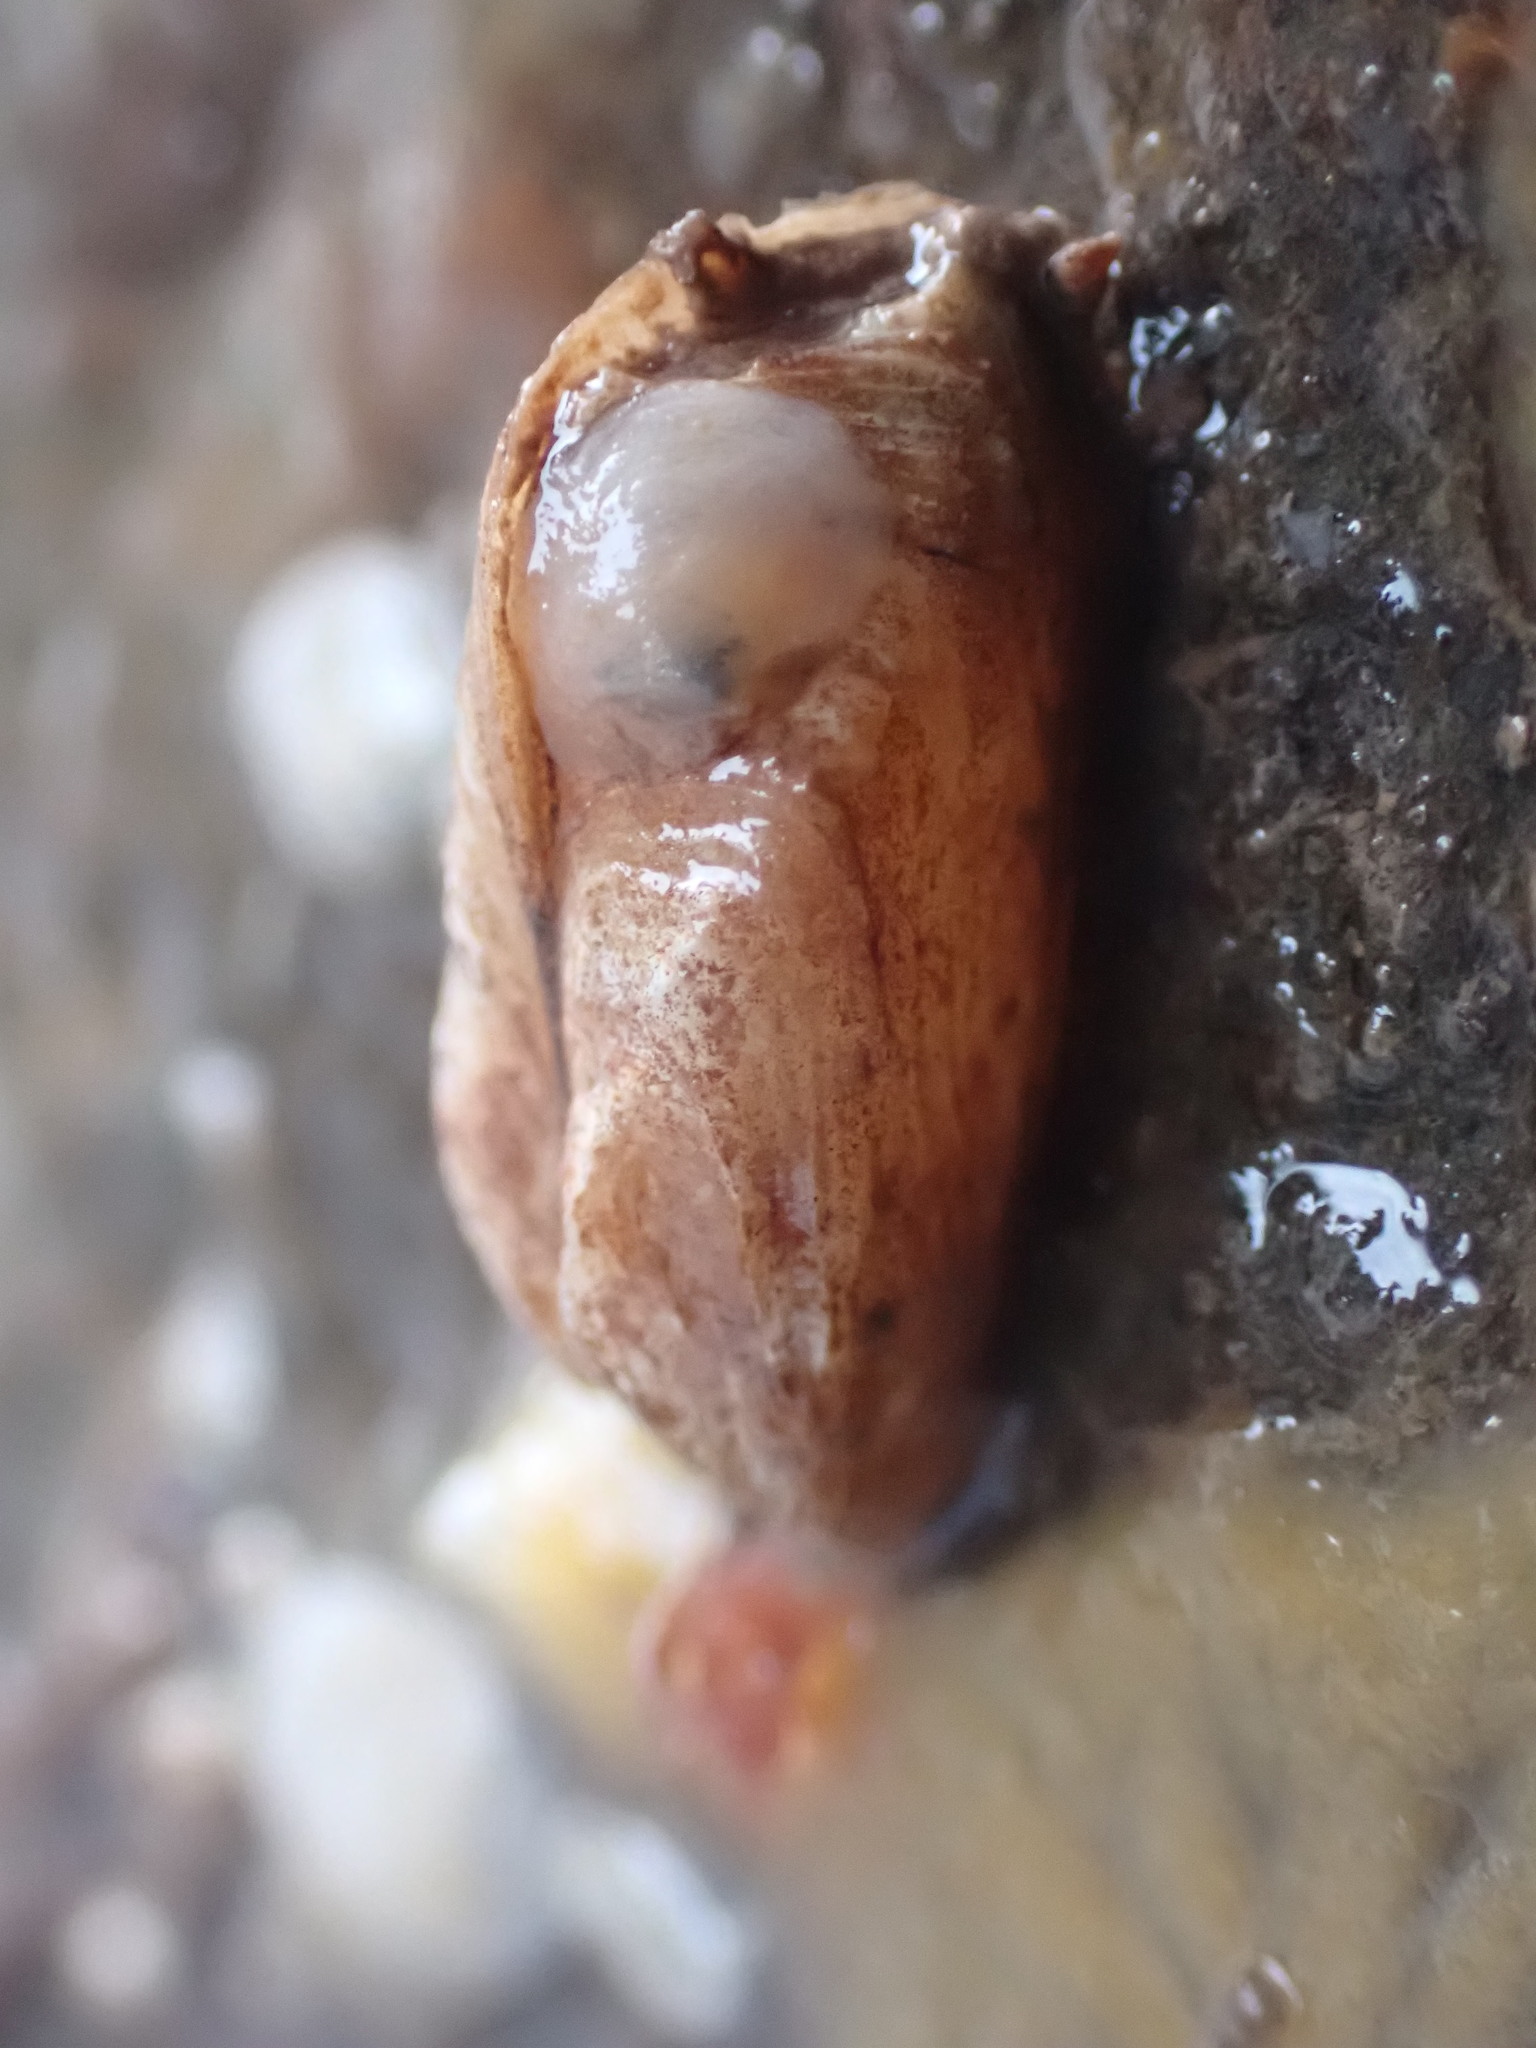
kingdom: Animalia
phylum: Mollusca
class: Bivalvia
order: Adapedonta
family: Hiatellidae
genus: Hiatella
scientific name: Hiatella arctica
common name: Arctic hiatella
